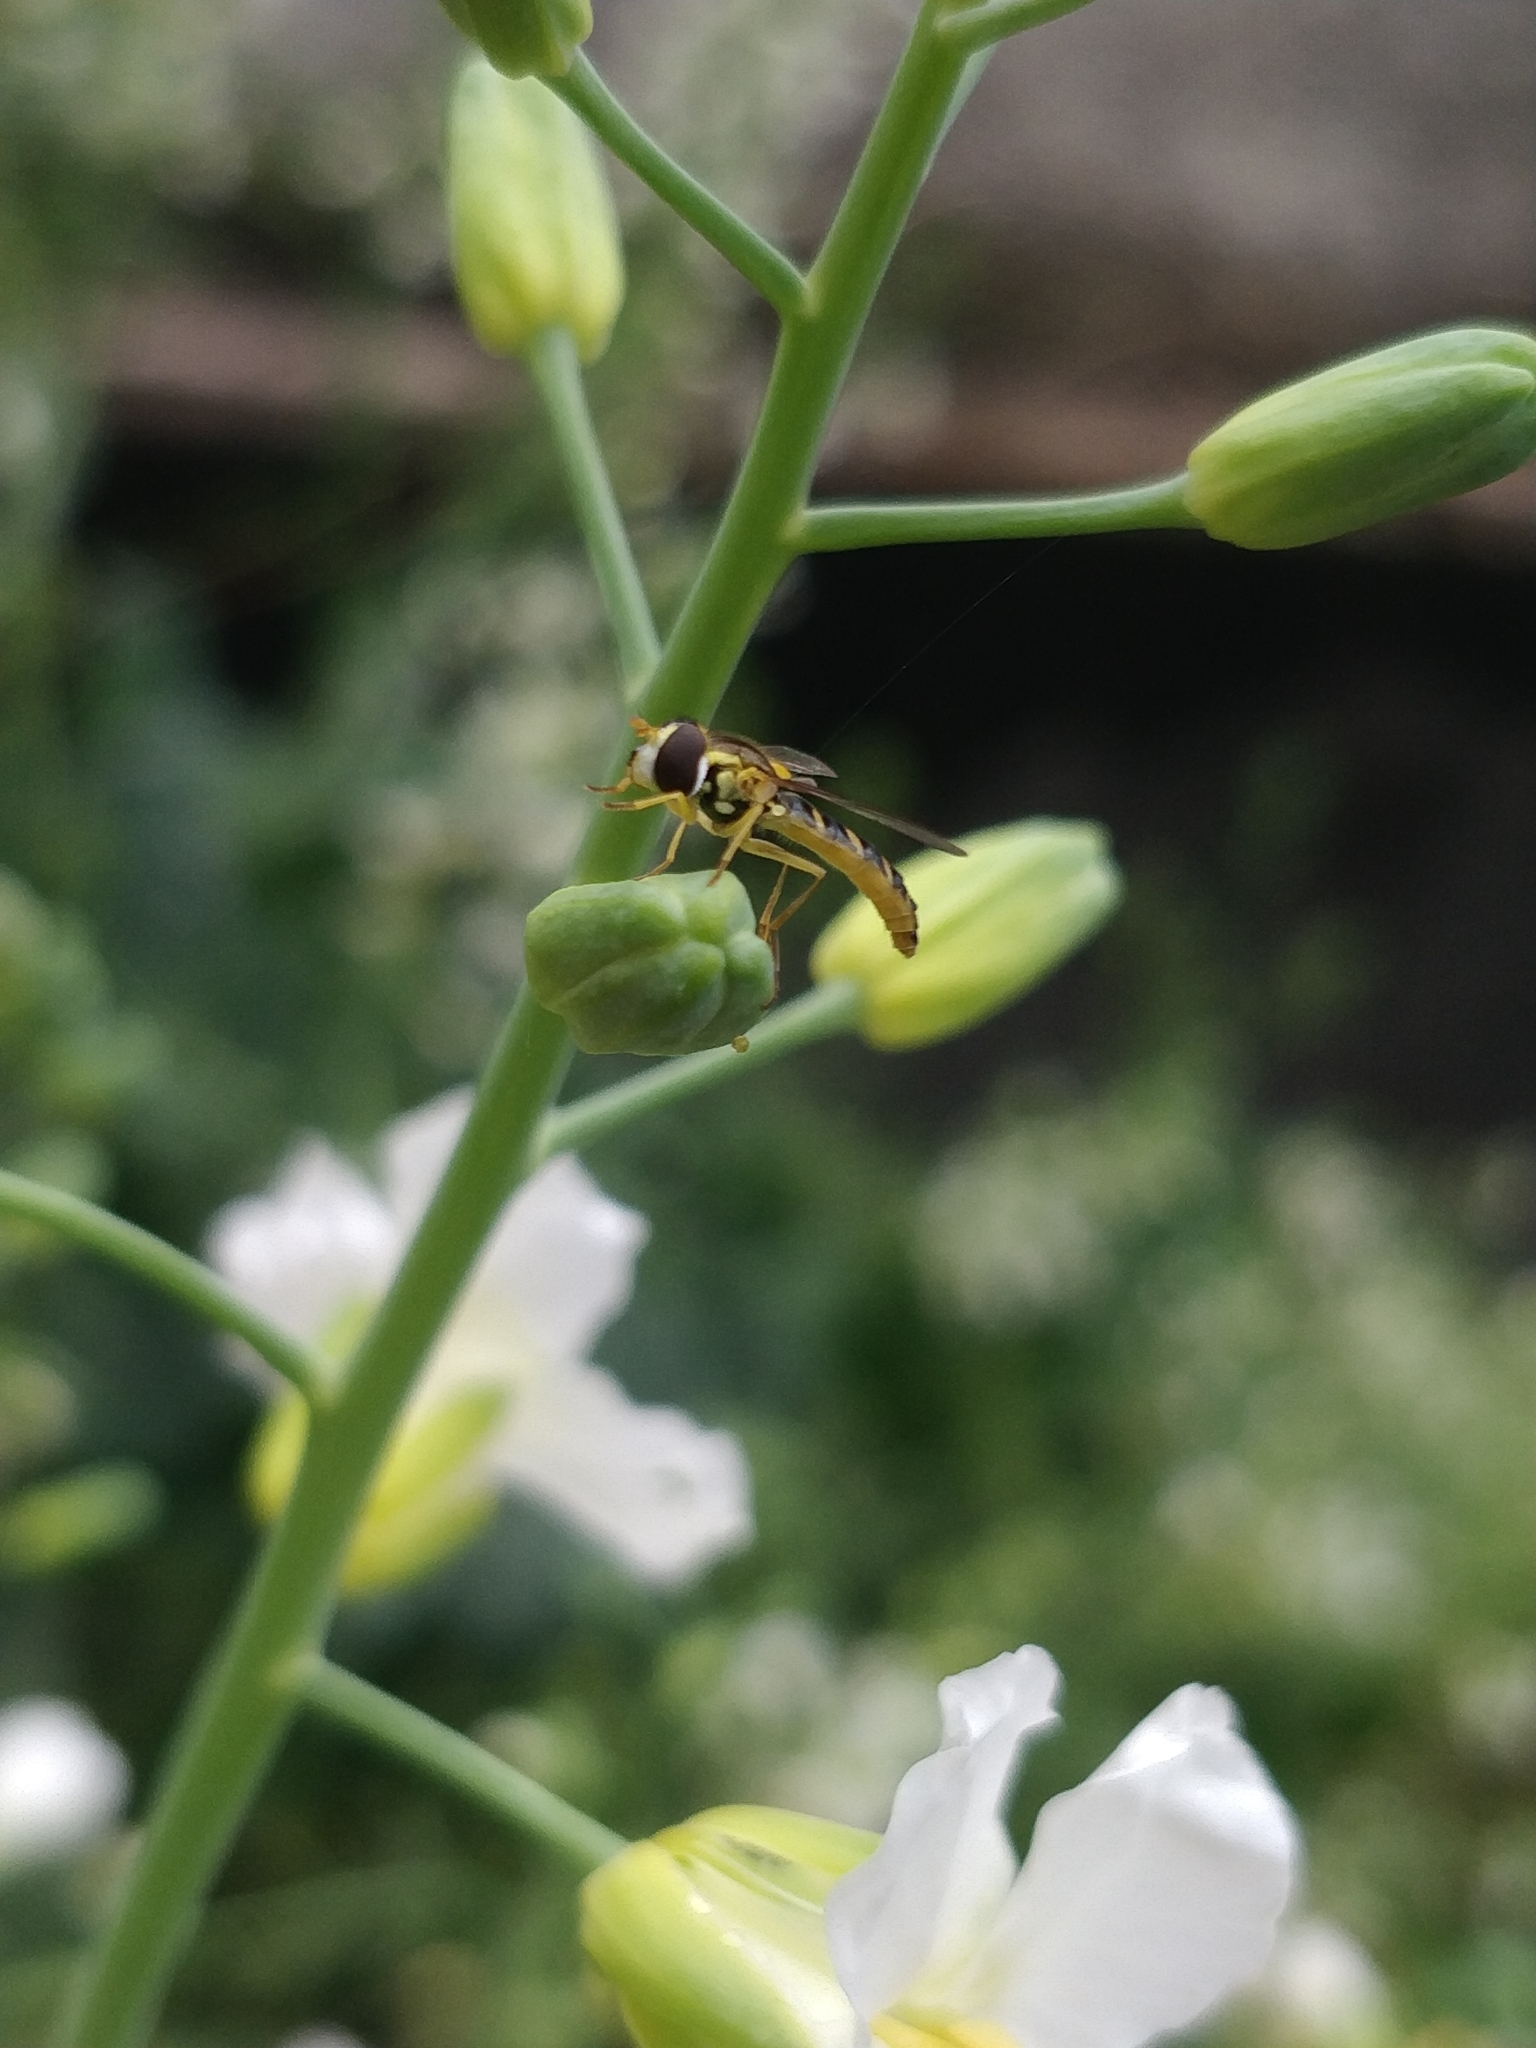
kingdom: Animalia
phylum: Arthropoda
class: Insecta
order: Diptera
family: Syrphidae
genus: Sphaerophoria
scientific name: Sphaerophoria scripta
